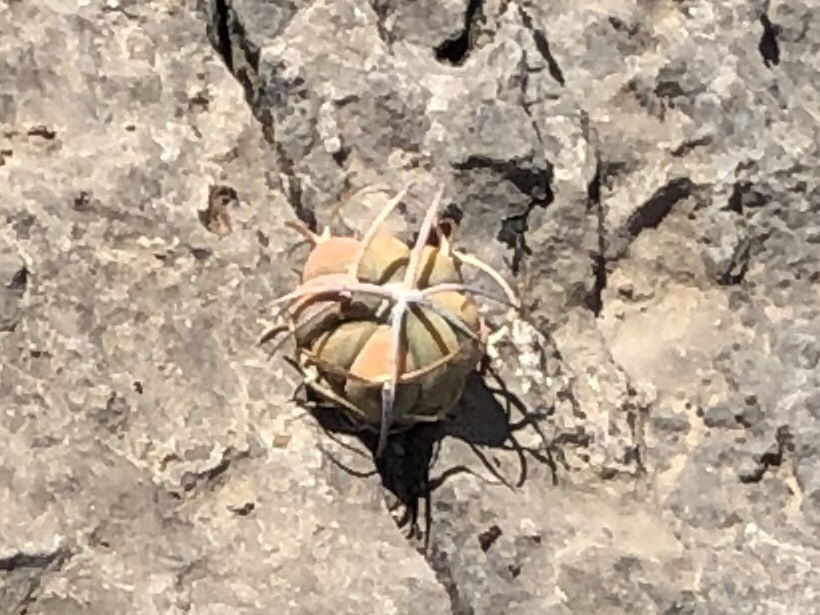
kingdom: Plantae
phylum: Tracheophyta
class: Magnoliopsida
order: Caryophyllales
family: Cactaceae
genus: Echinocactus
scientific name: Echinocactus horizonthalonius
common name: Devilshead
